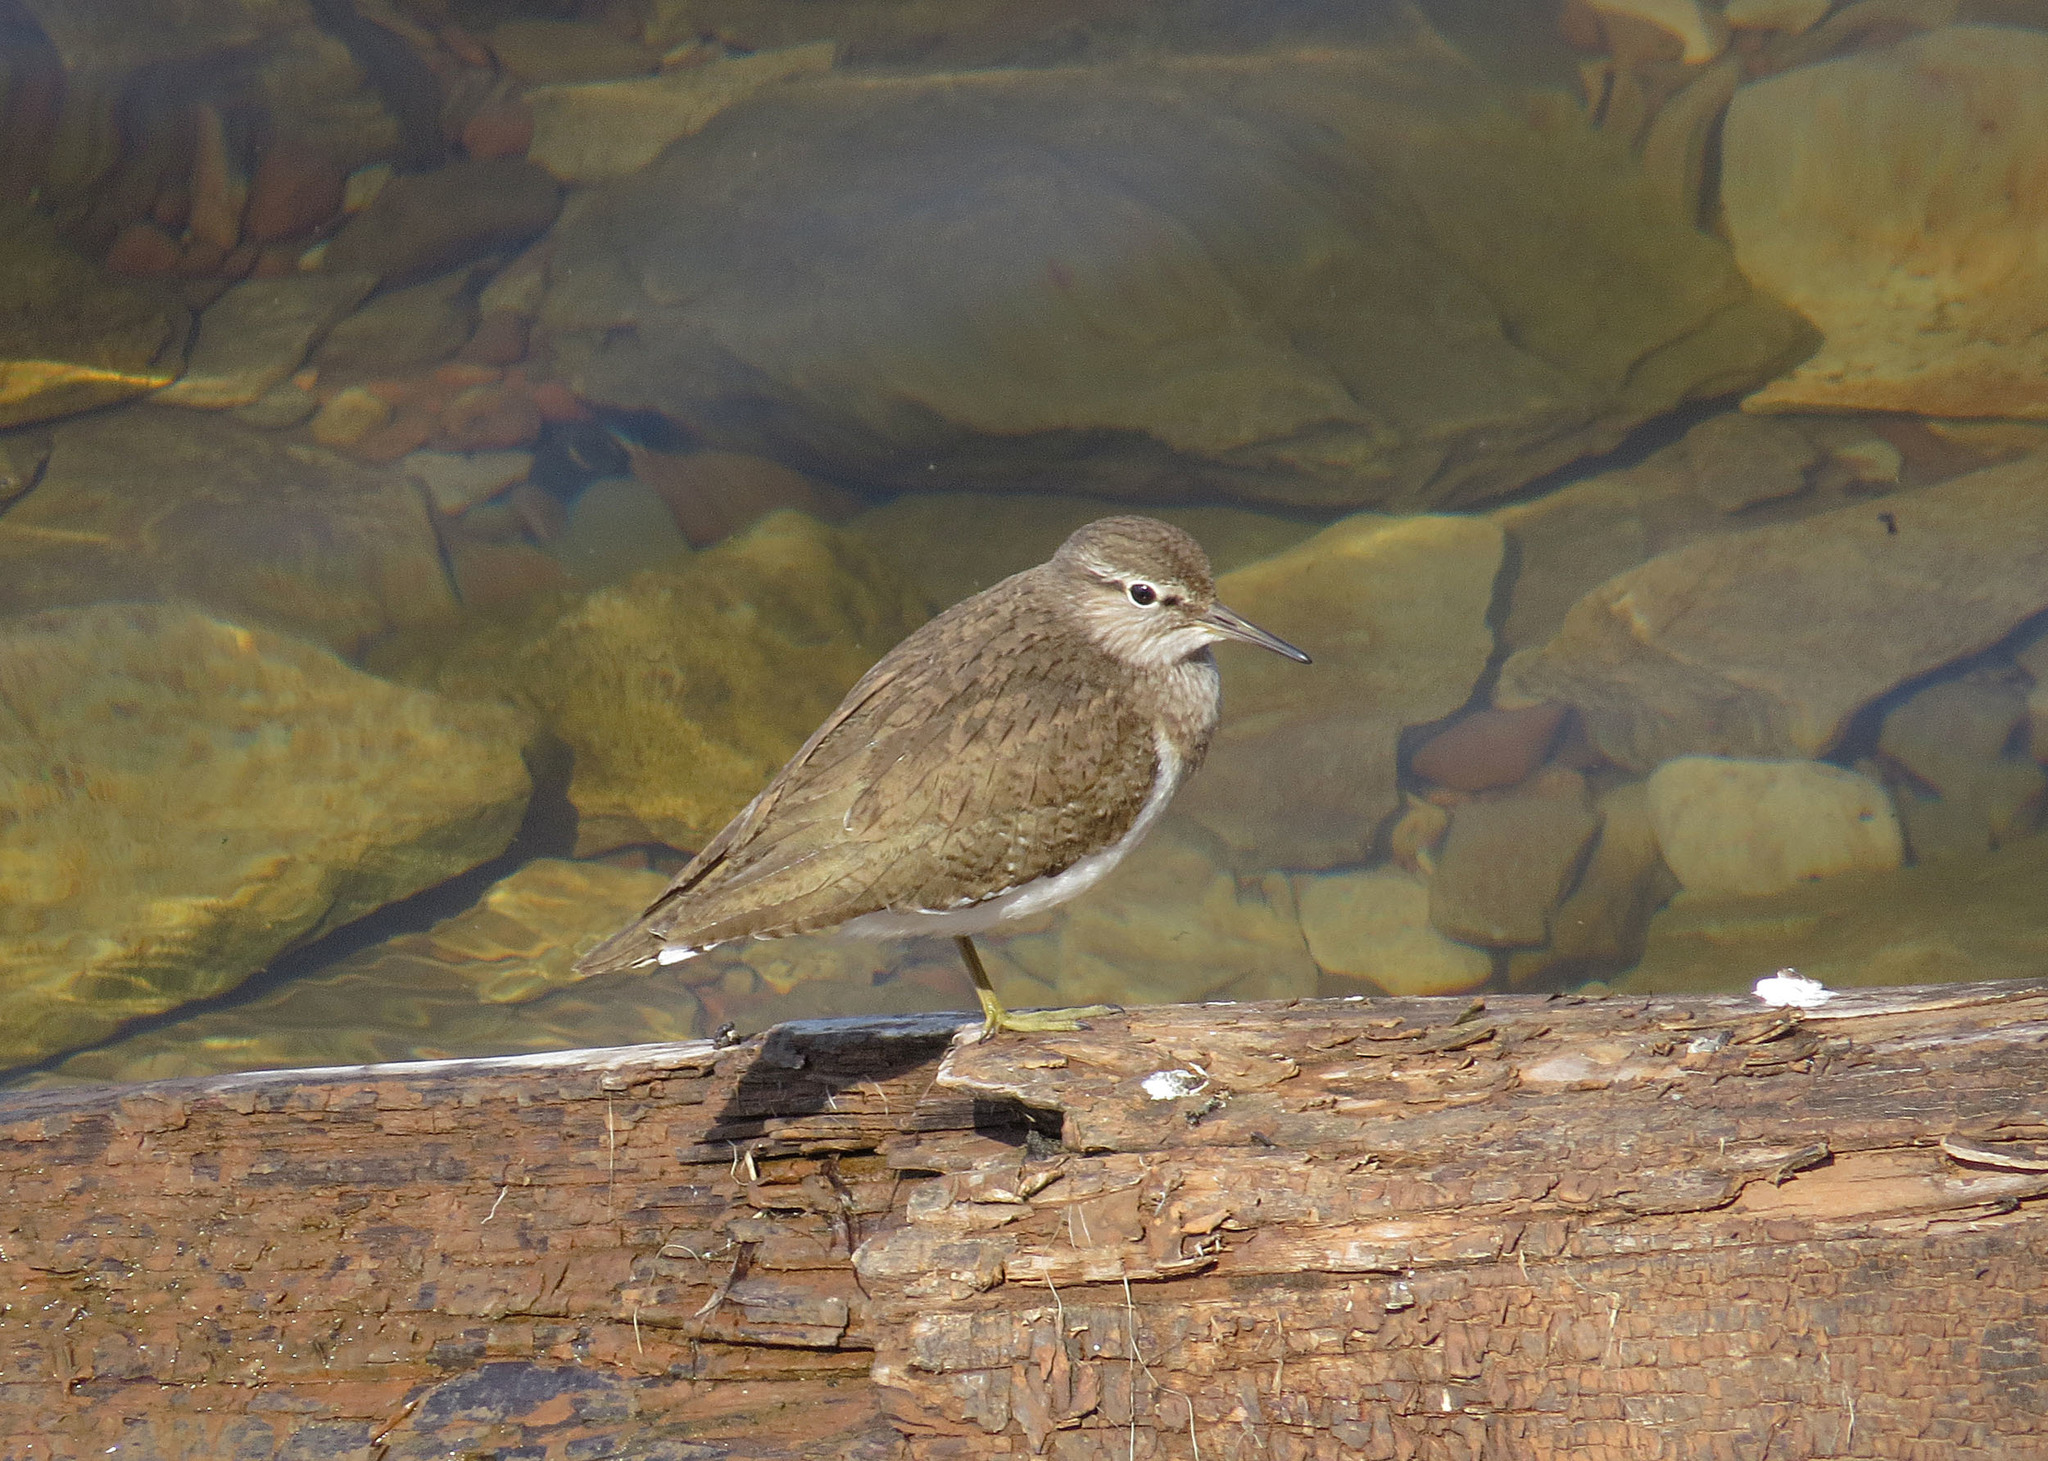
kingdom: Animalia
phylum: Chordata
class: Aves
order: Charadriiformes
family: Scolopacidae
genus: Actitis
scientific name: Actitis hypoleucos
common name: Common sandpiper
